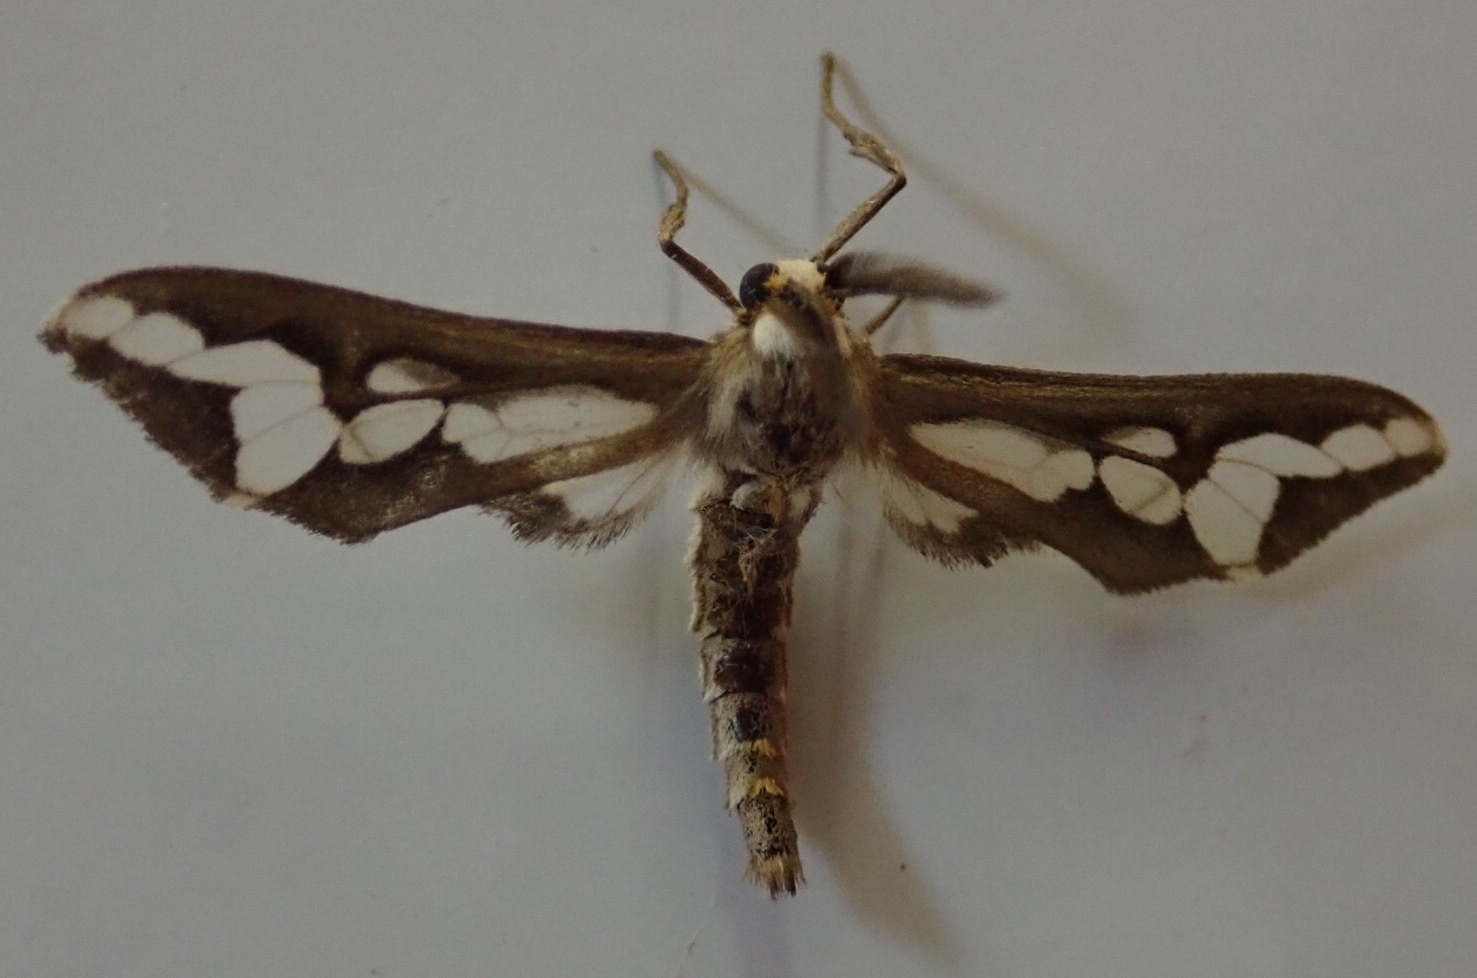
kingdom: Animalia
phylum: Arthropoda
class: Insecta
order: Lepidoptera
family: Erebidae
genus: Thyretes
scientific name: Thyretes caffra
